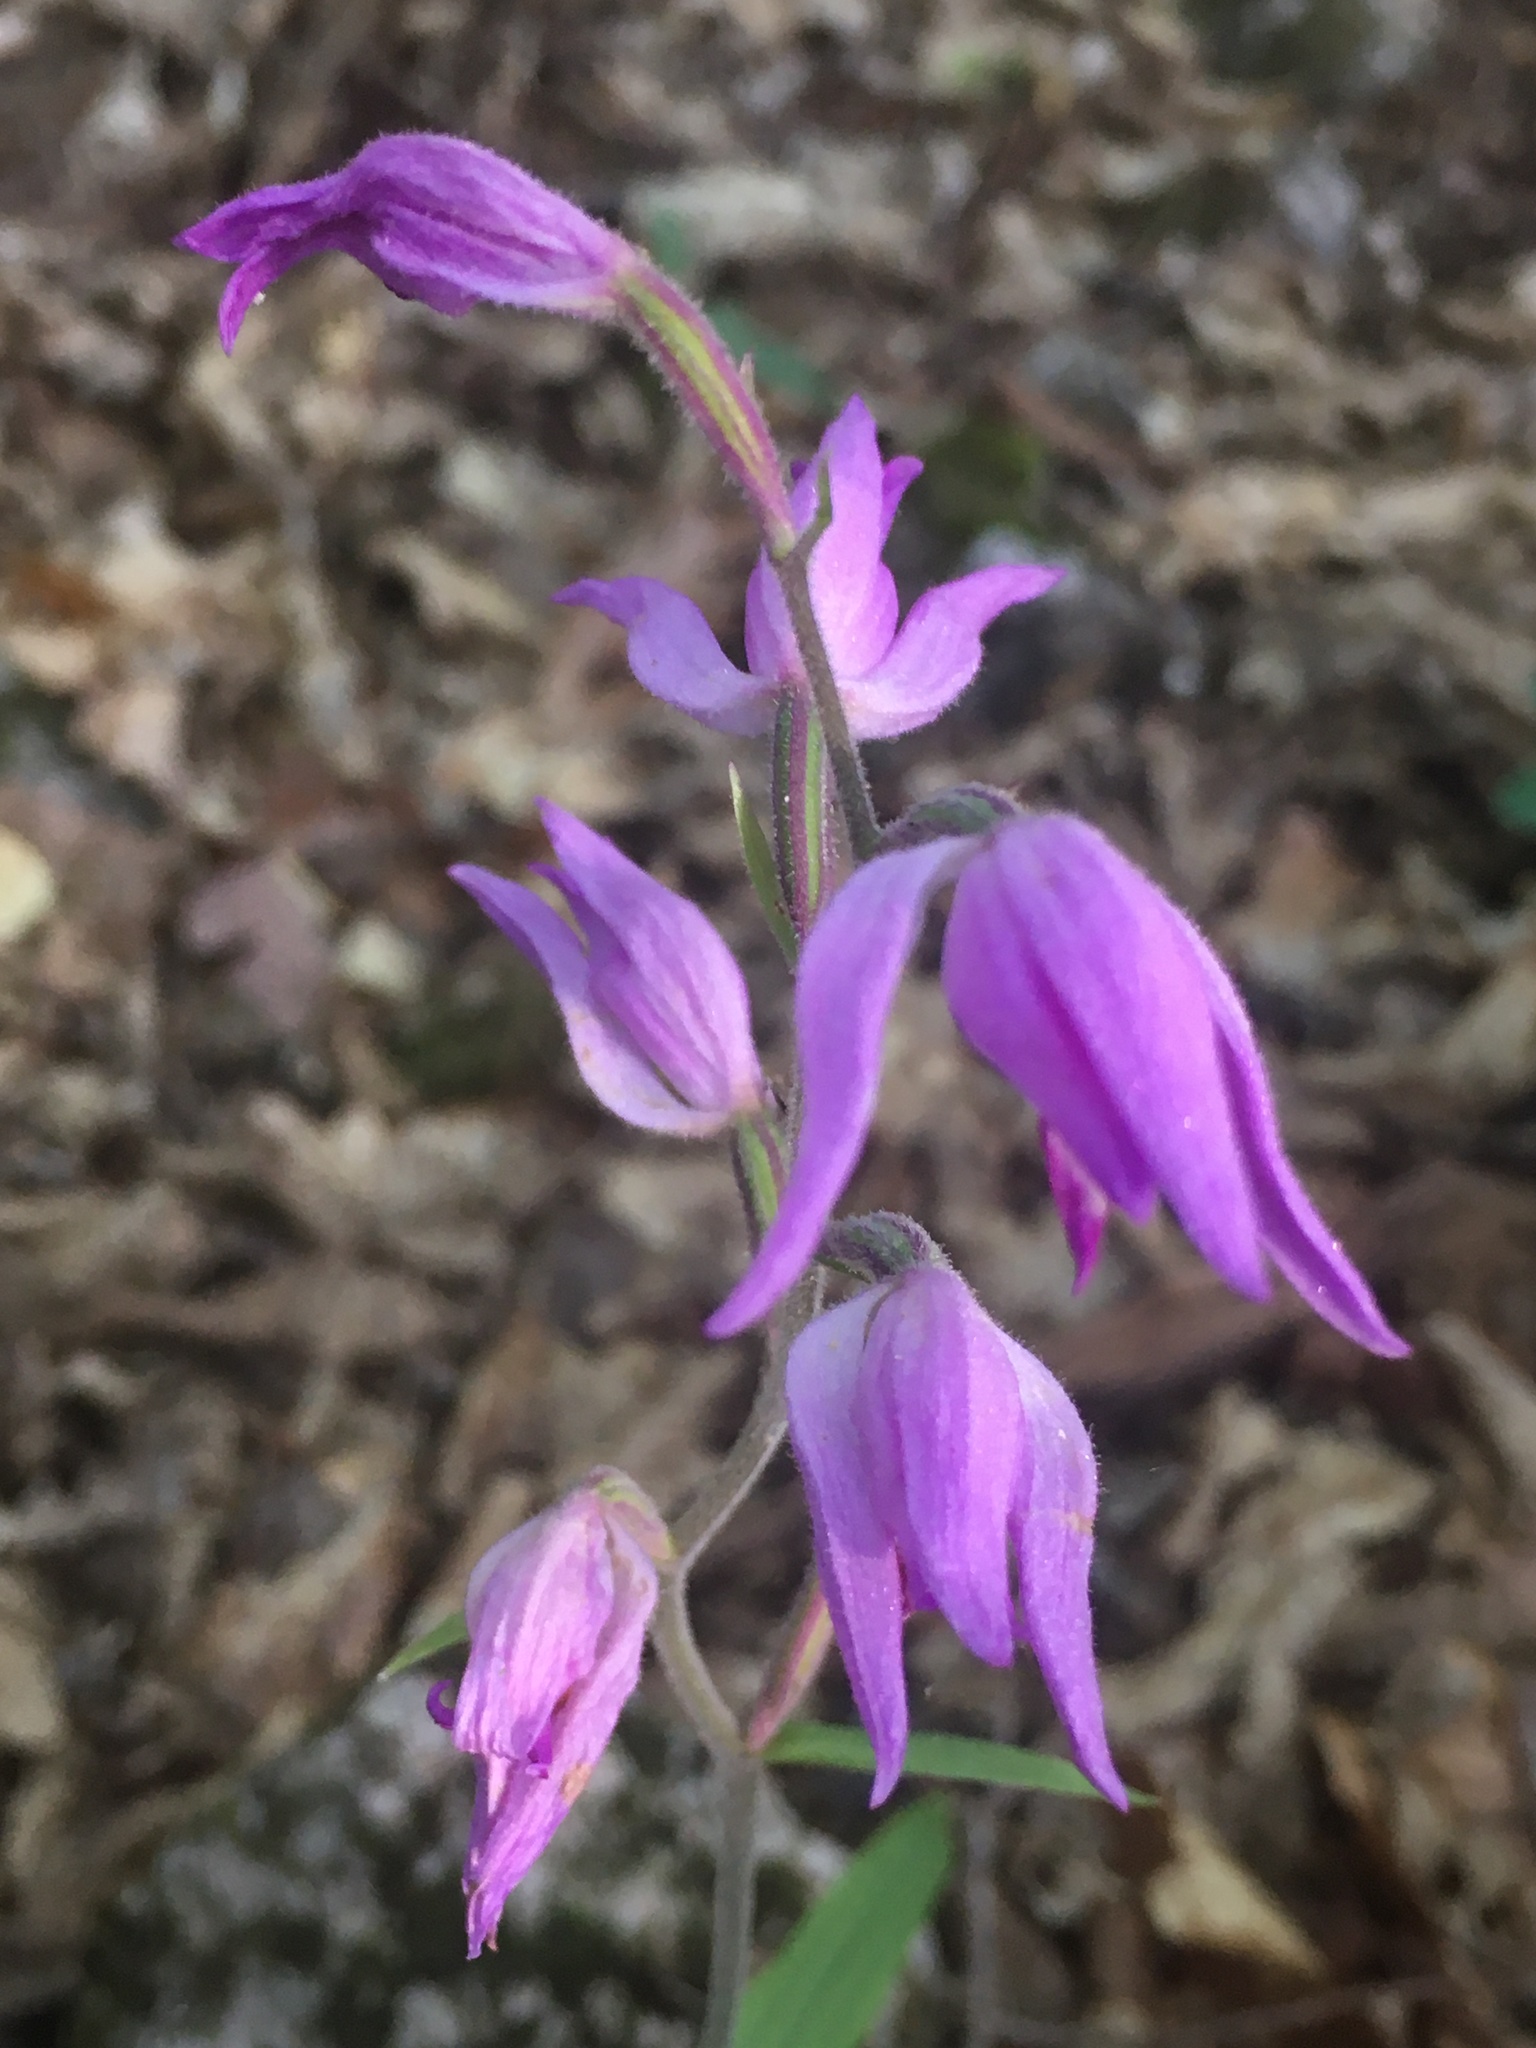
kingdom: Plantae
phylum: Tracheophyta
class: Liliopsida
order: Asparagales
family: Orchidaceae
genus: Cephalanthera
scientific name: Cephalanthera rubra
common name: Red helleborine
